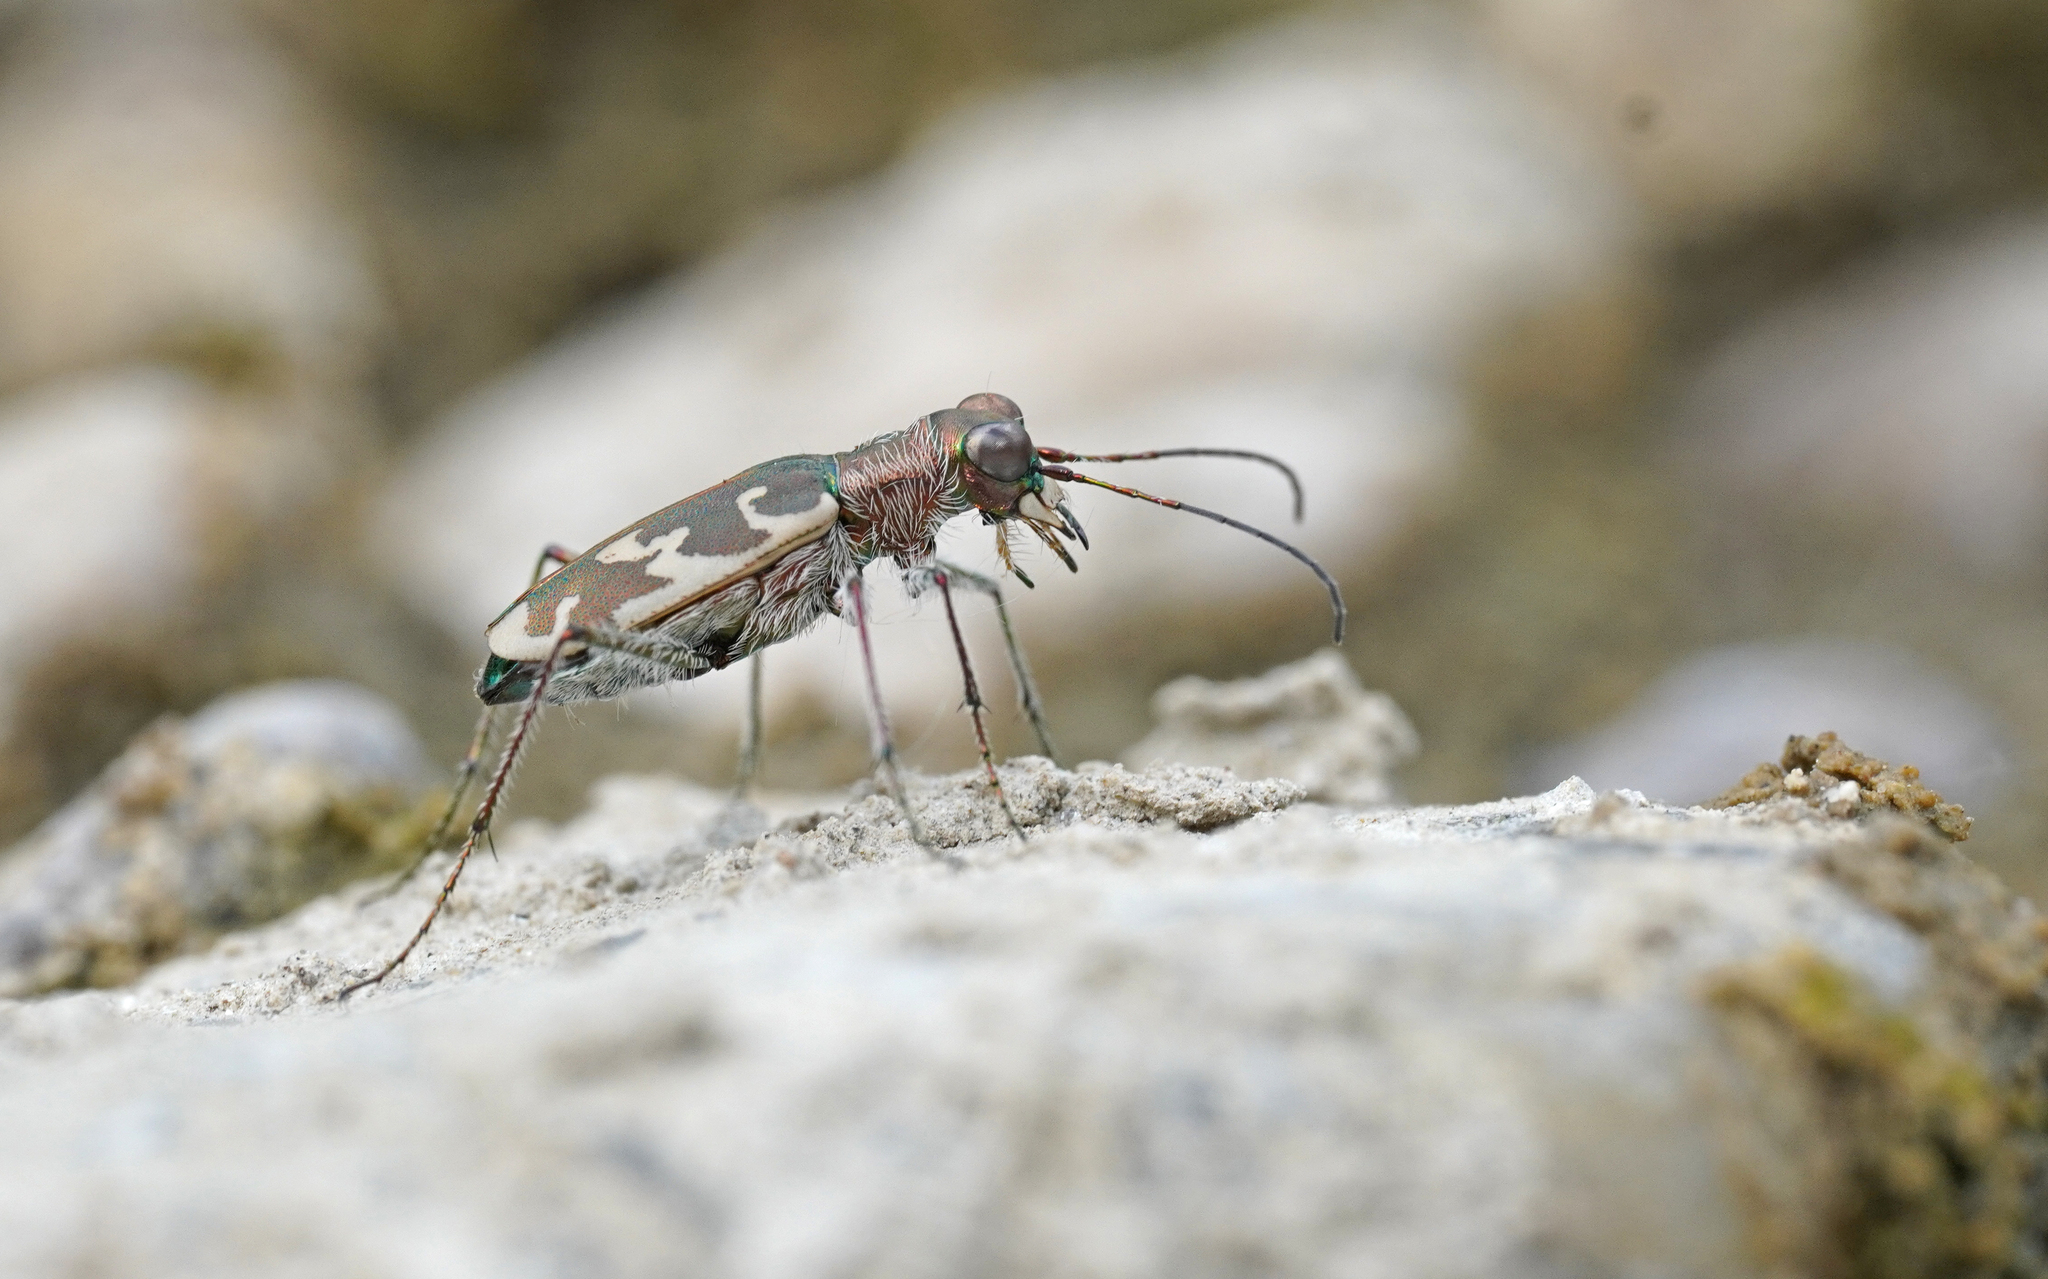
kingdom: Animalia
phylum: Arthropoda
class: Insecta
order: Coleoptera
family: Carabidae
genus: Cylindera
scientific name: Cylindera arenaria
